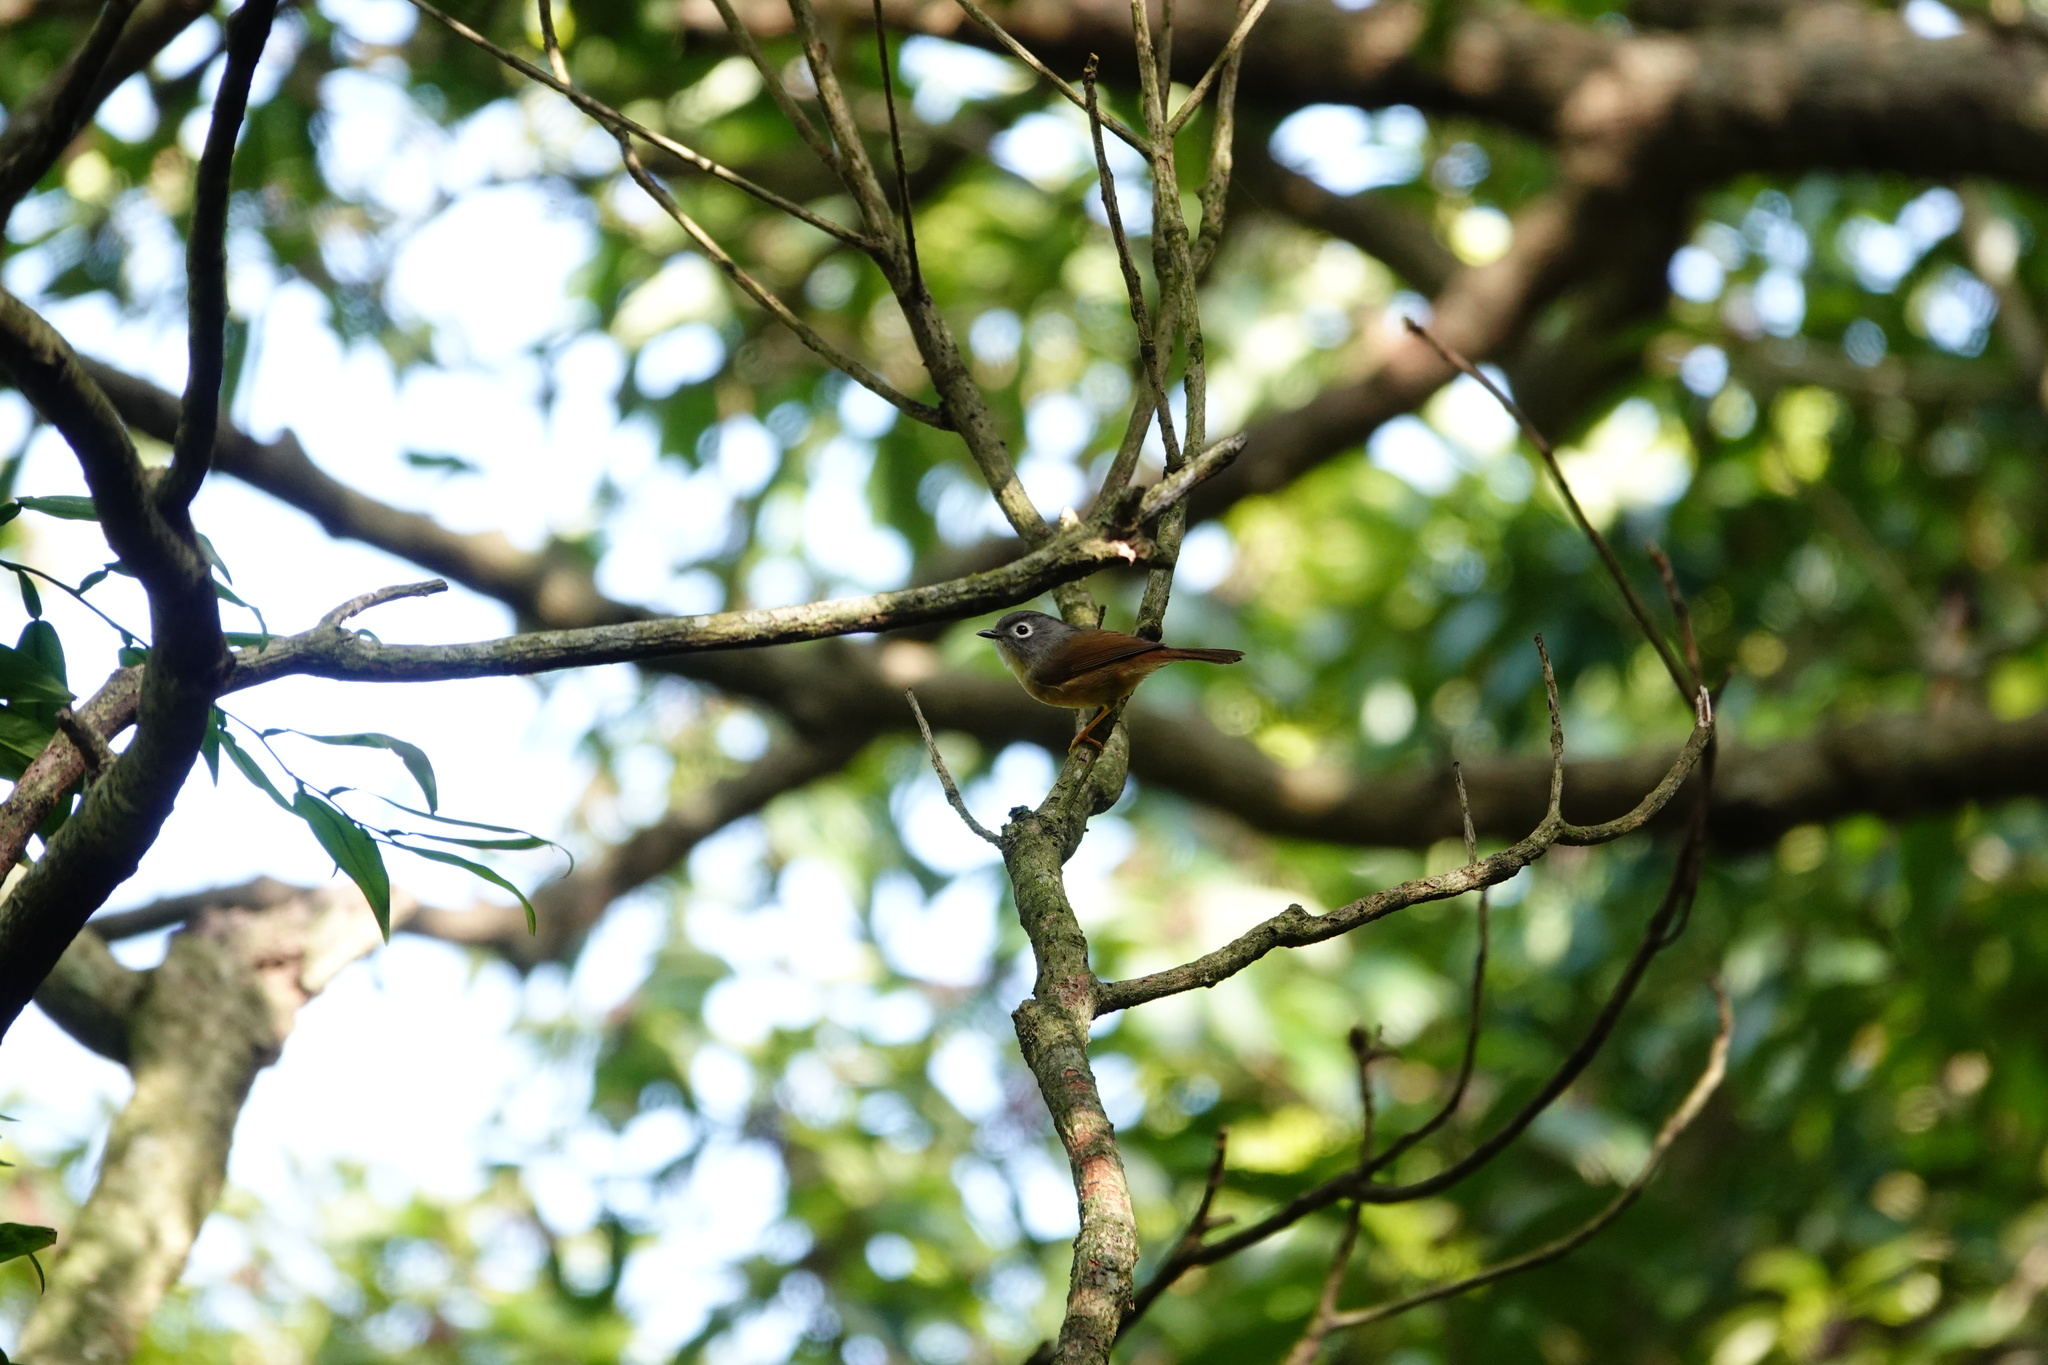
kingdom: Animalia
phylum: Chordata
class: Aves
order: Passeriformes
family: Pellorneidae
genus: Alcippe
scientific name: Alcippe morrisonia
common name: Grey-cheeked fulvetta
